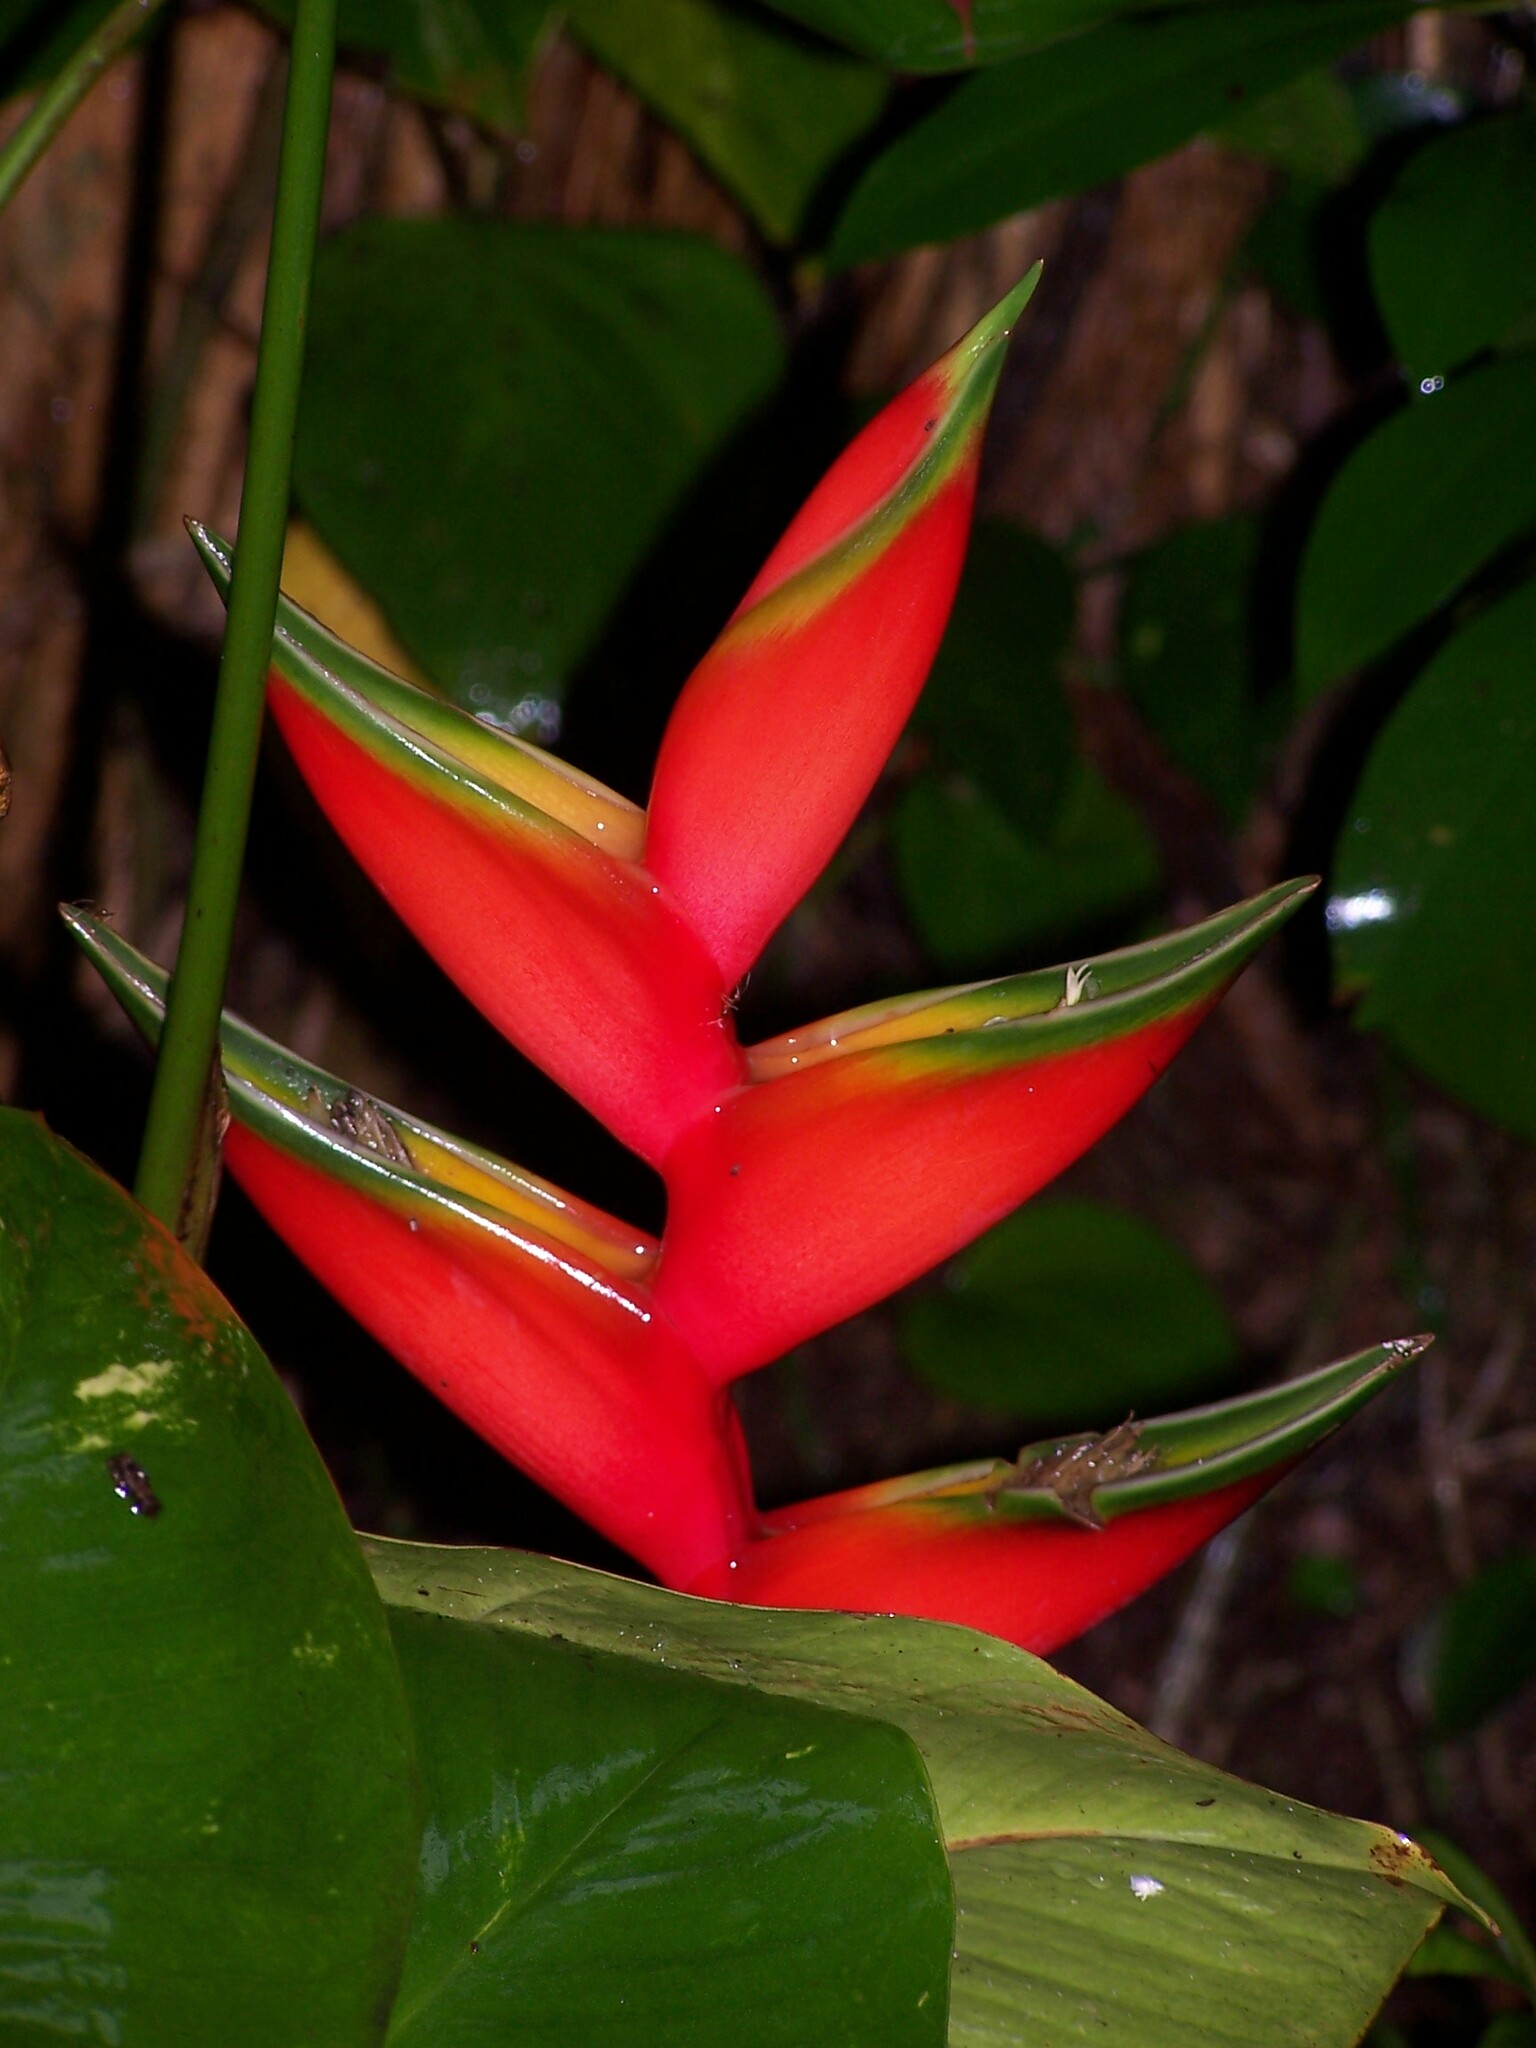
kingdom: Plantae
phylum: Tracheophyta
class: Liliopsida
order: Zingiberales
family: Heliconiaceae
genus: Heliconia
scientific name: Heliconia bihai
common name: Macaw flower
